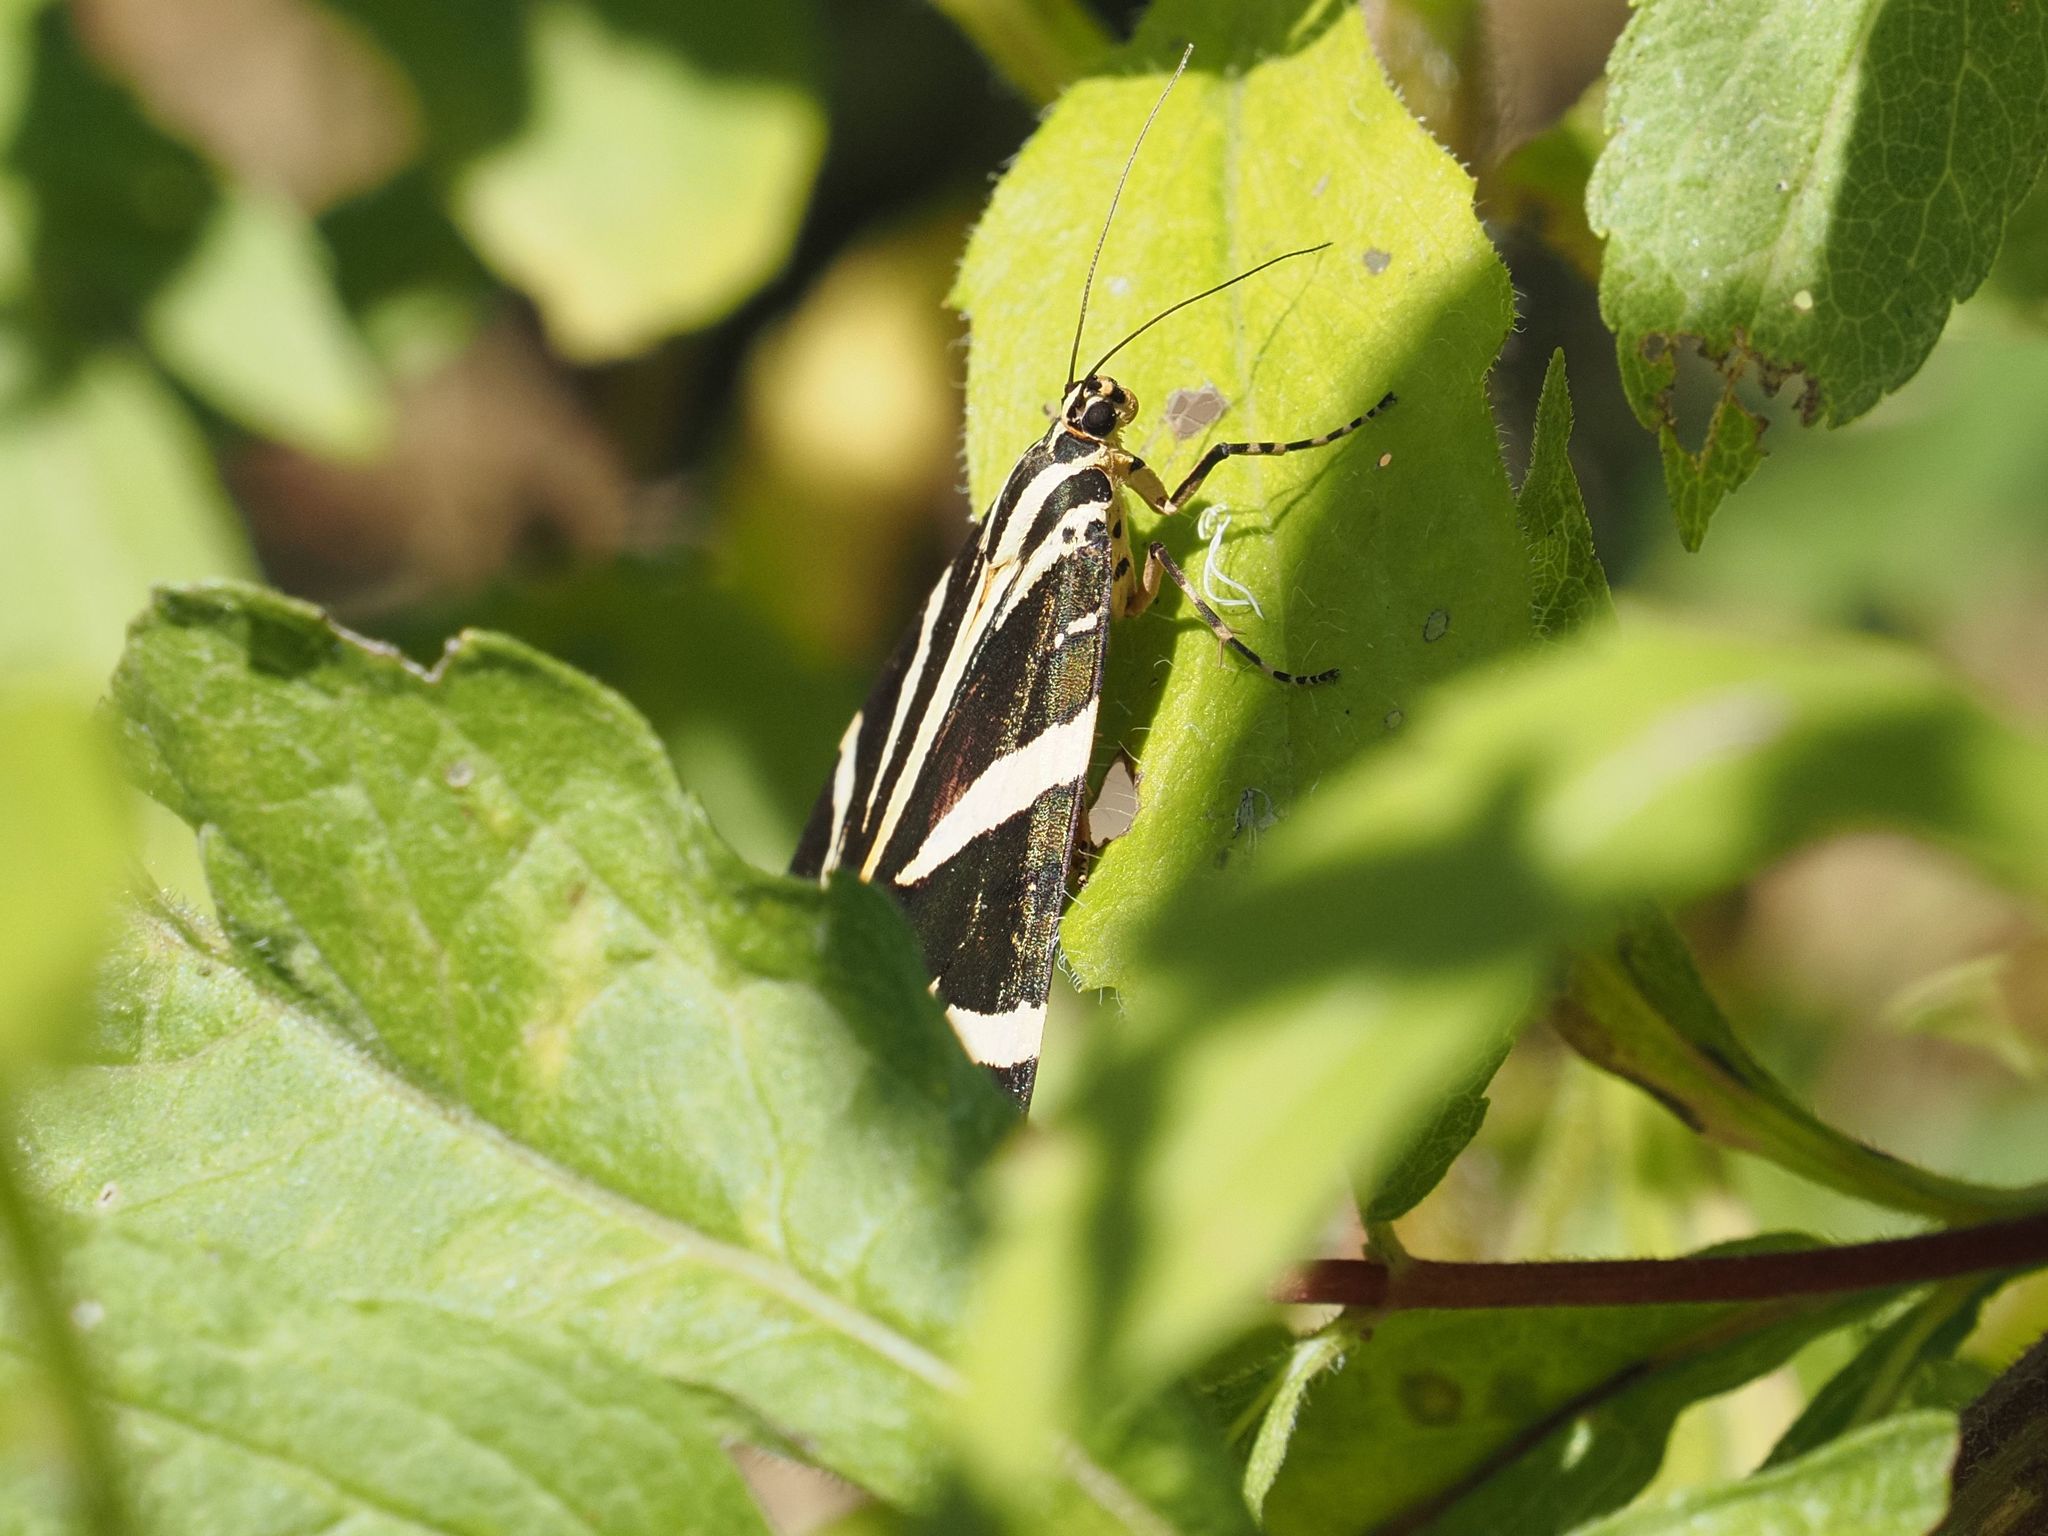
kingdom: Animalia
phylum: Arthropoda
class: Insecta
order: Lepidoptera
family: Erebidae
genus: Euplagia
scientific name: Euplagia quadripunctaria
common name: Jersey tiger
